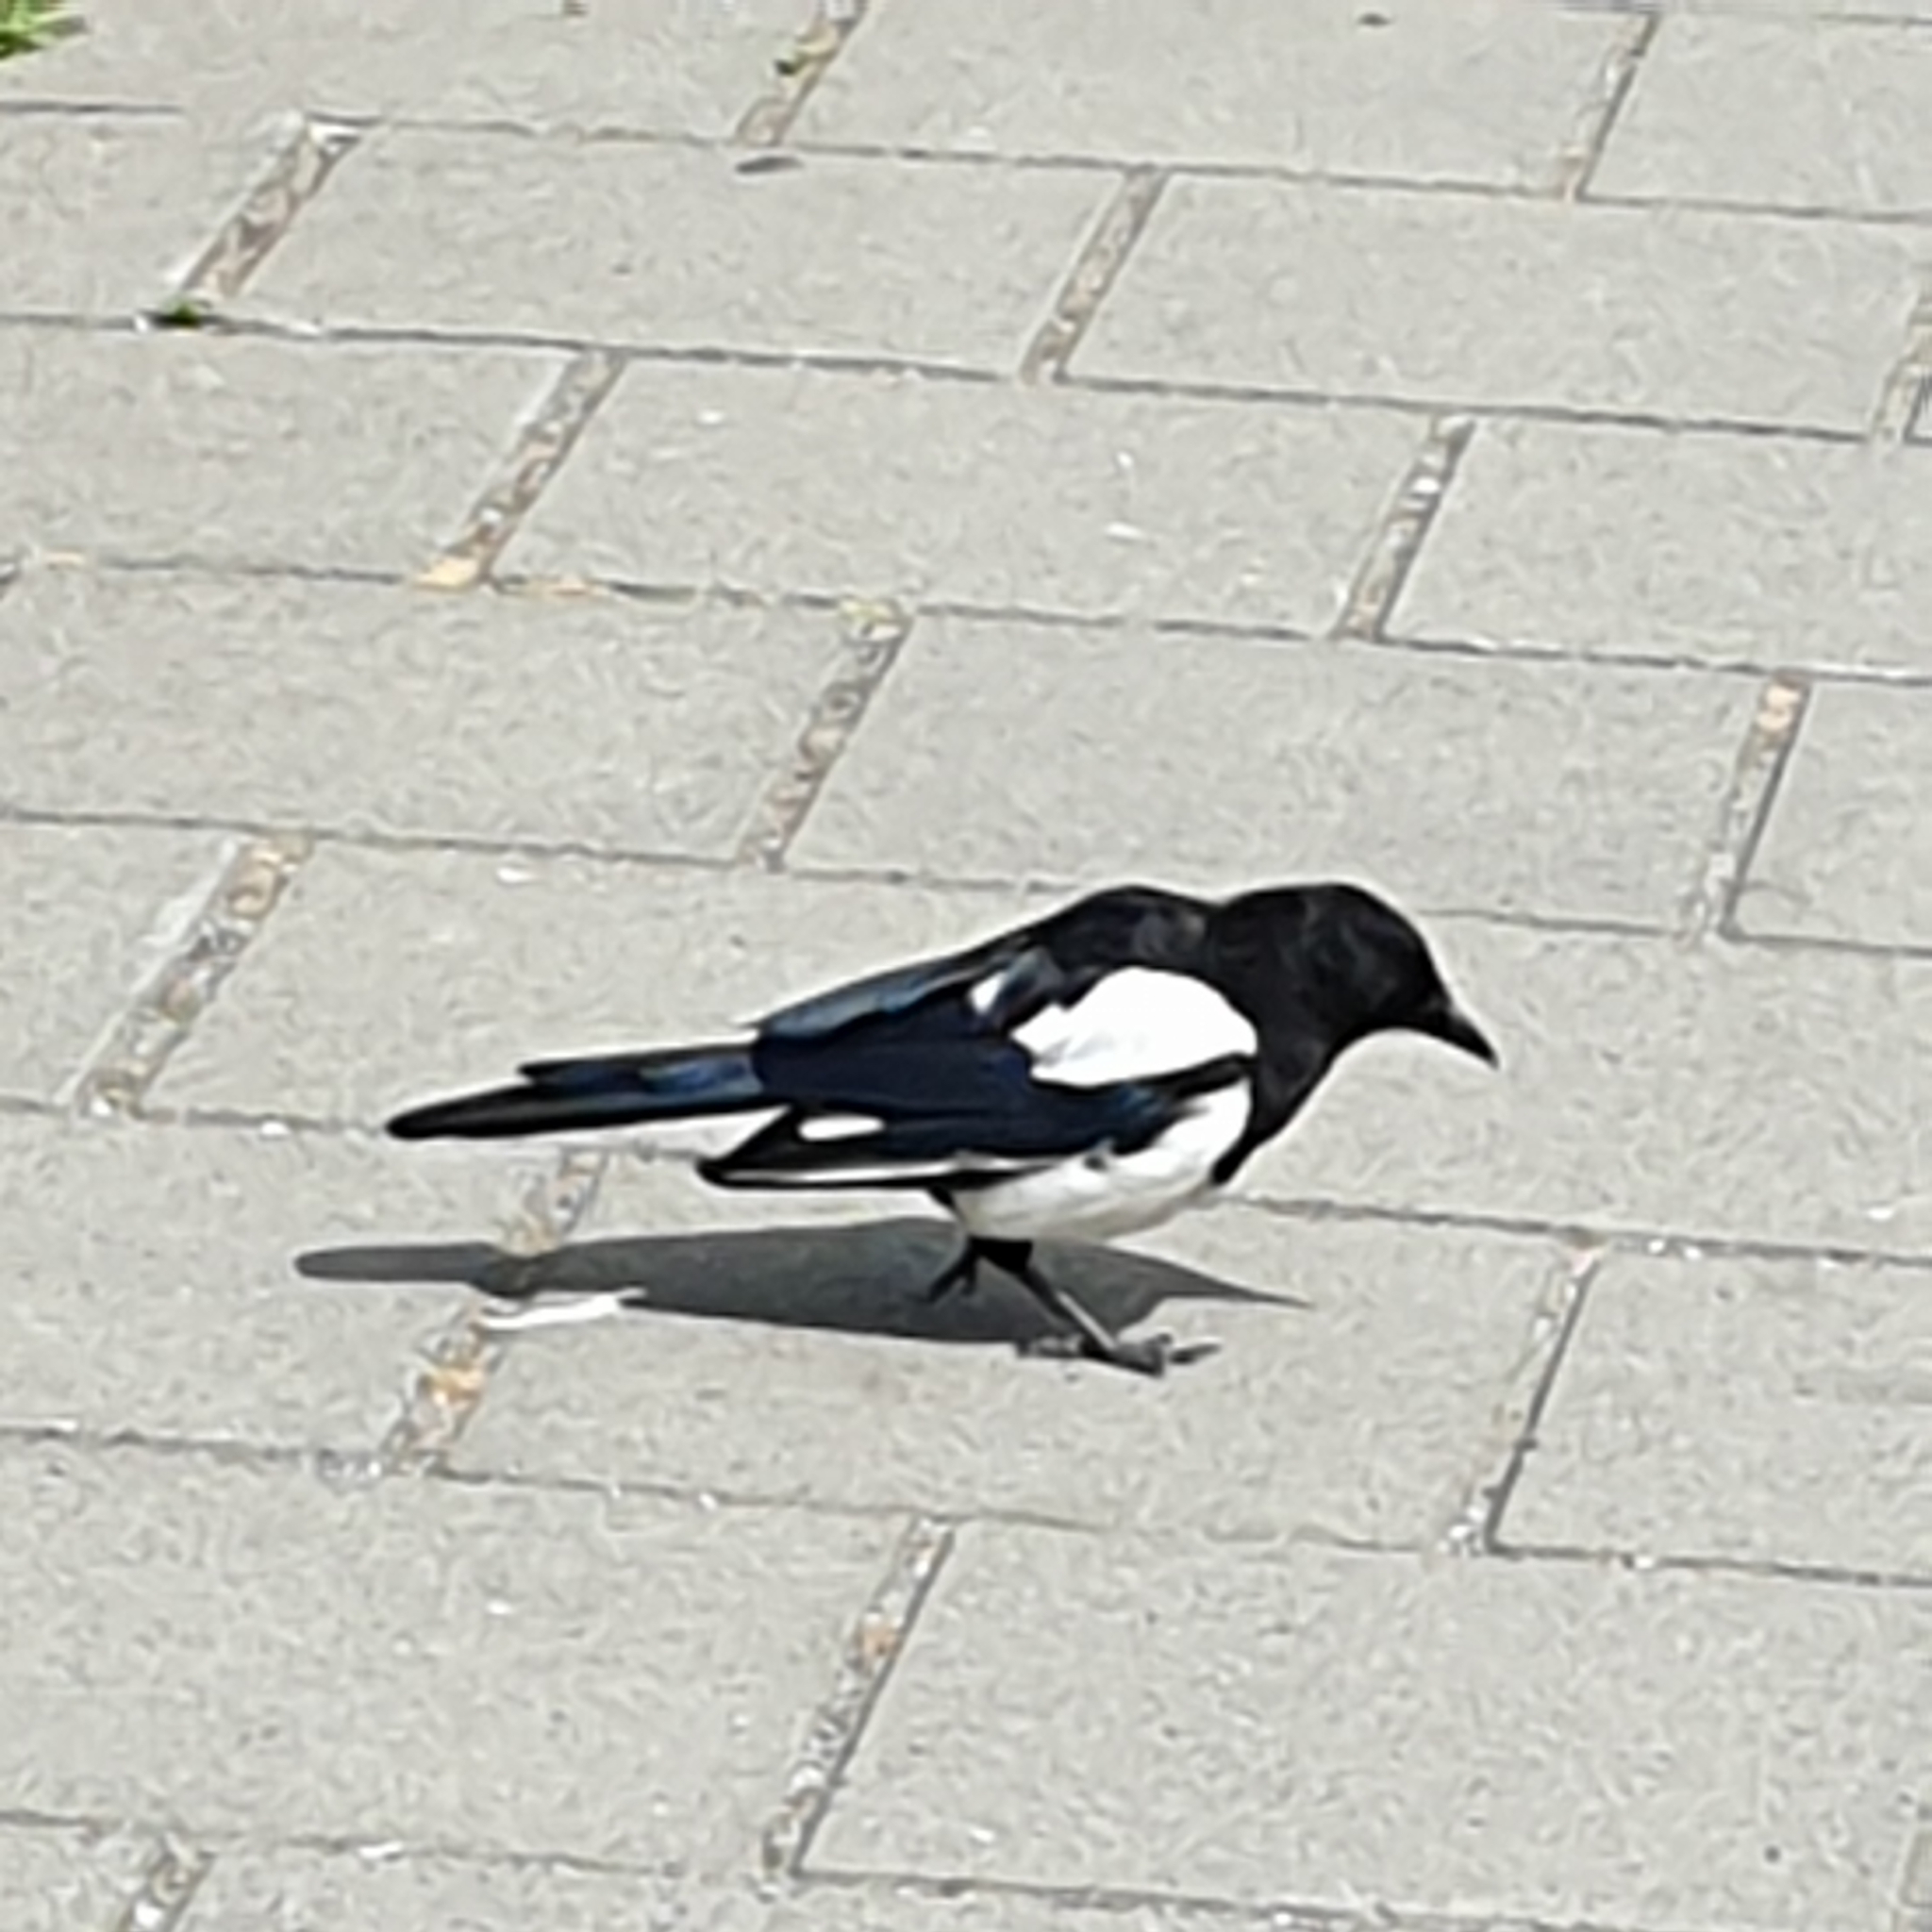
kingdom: Animalia
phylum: Chordata
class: Aves
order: Passeriformes
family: Corvidae
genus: Pica
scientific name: Pica pica
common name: Eurasian magpie
